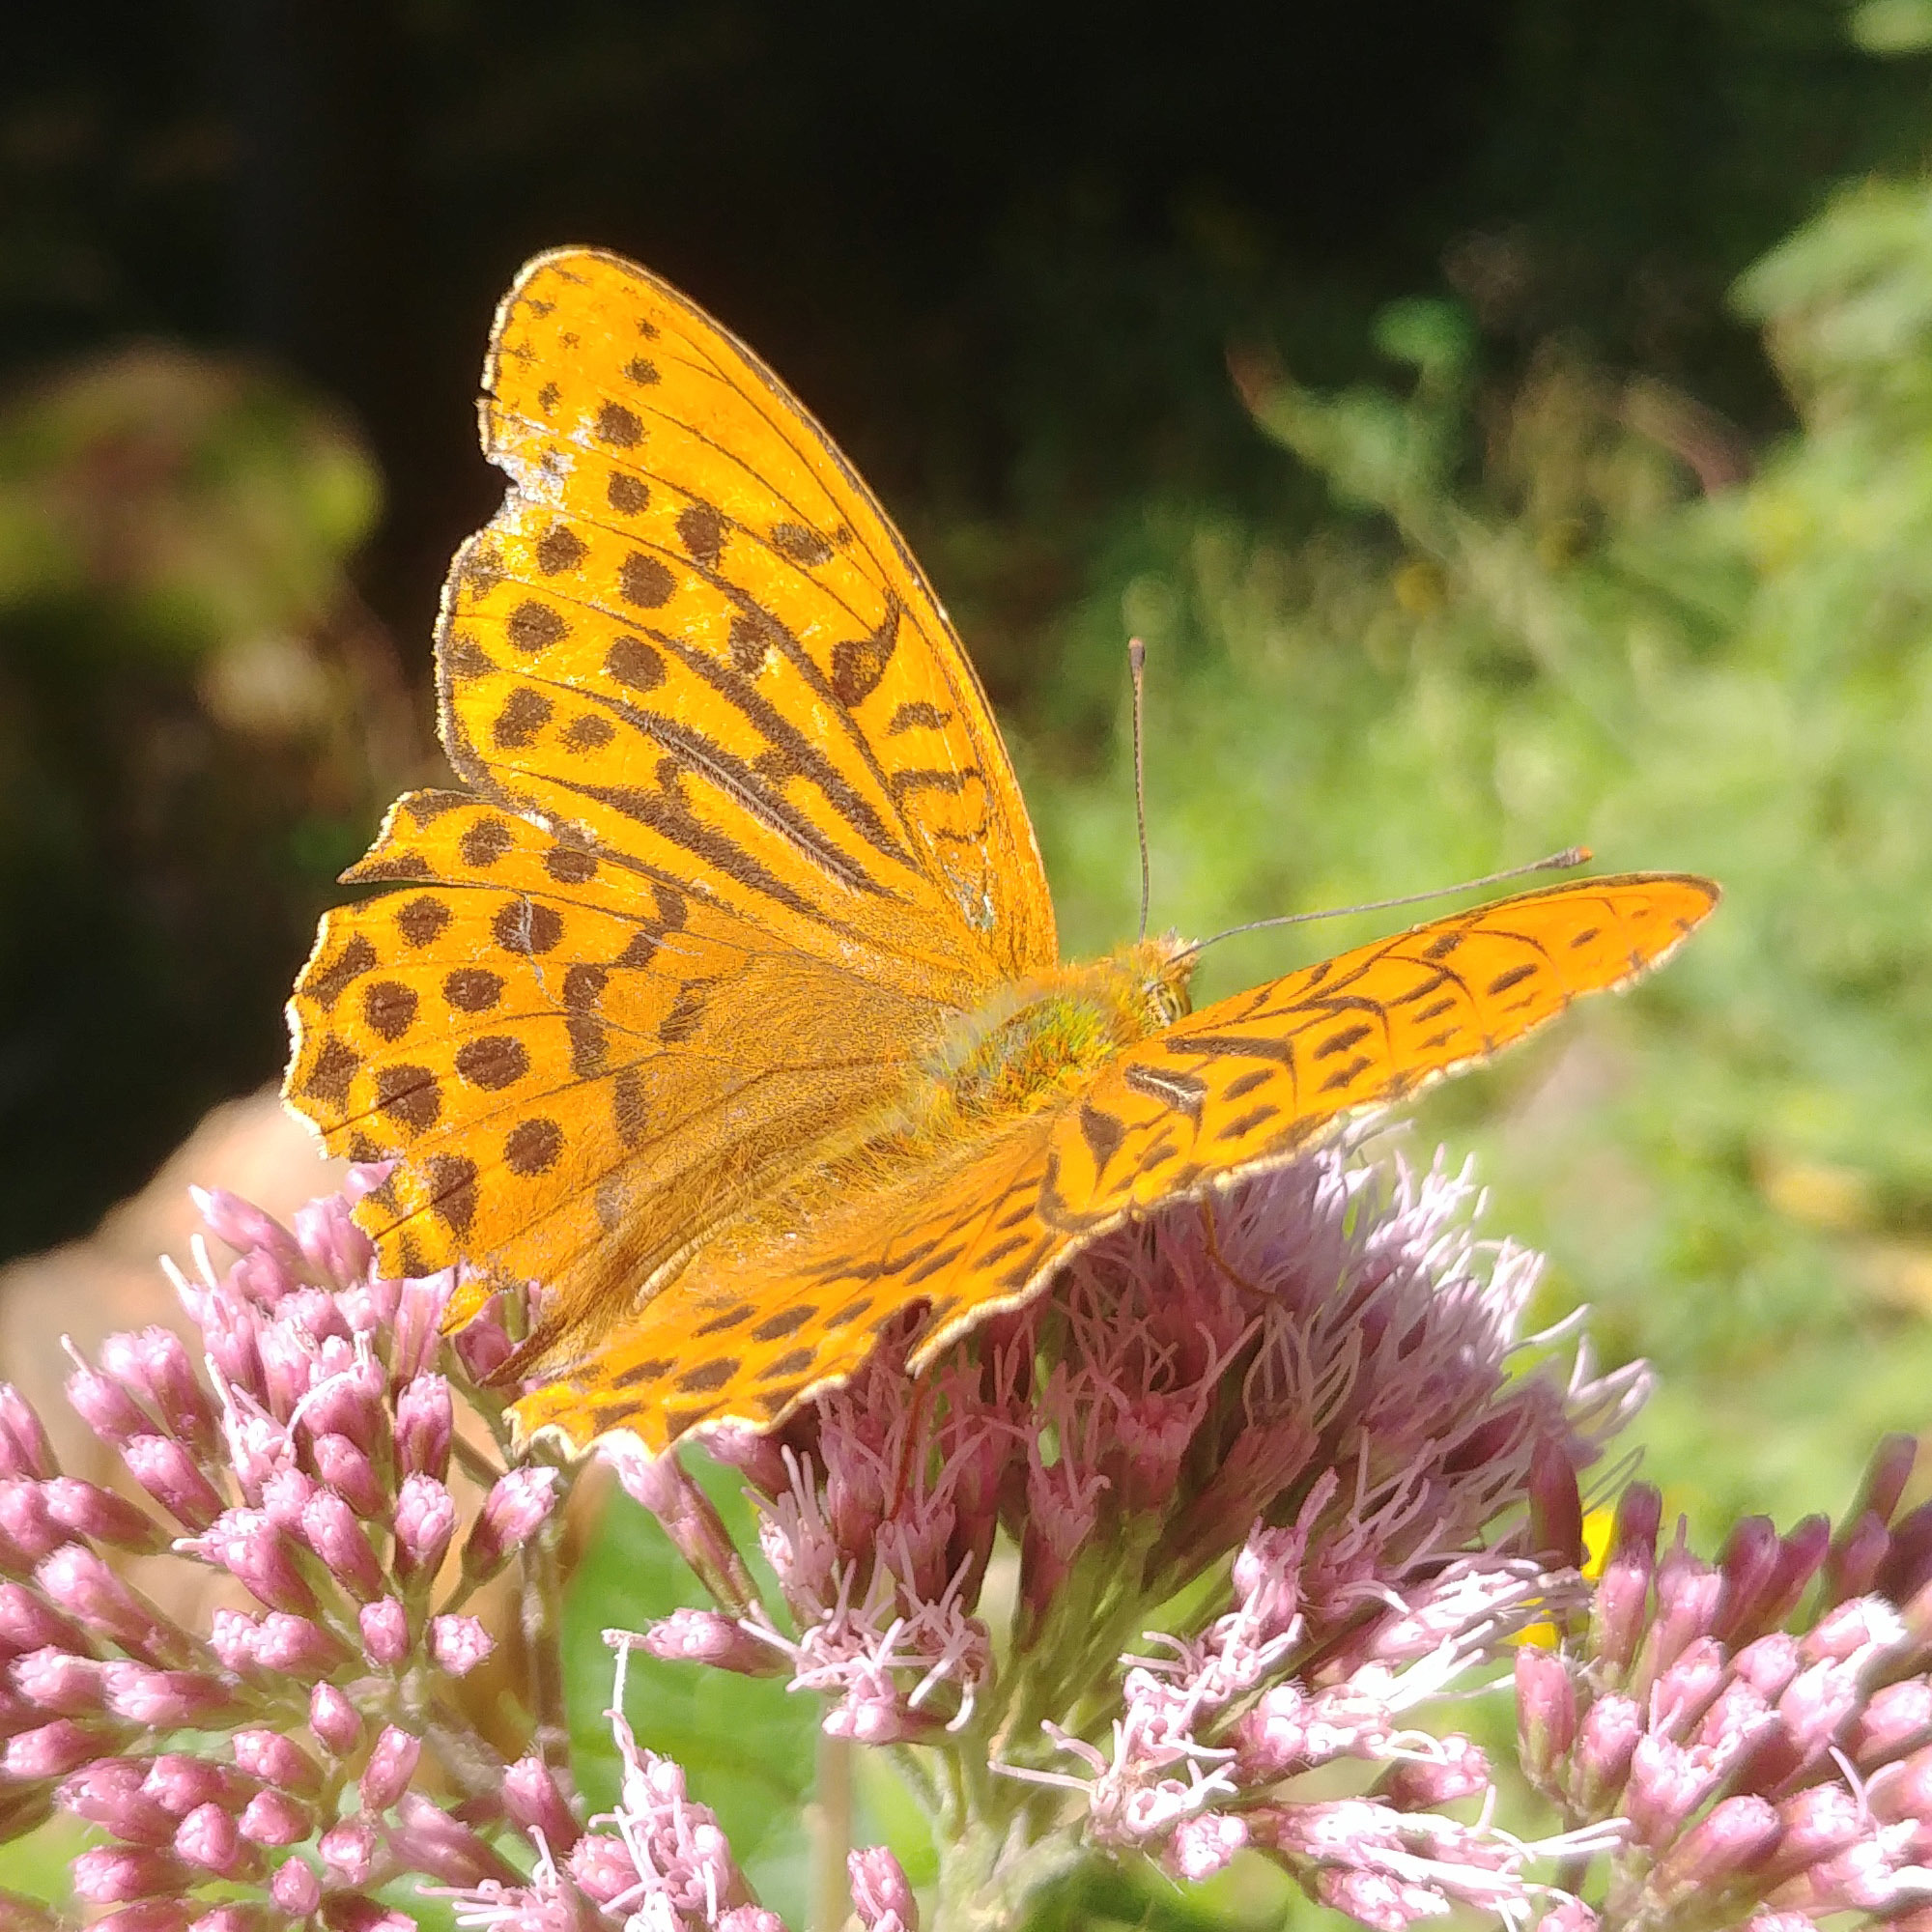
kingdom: Animalia
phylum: Arthropoda
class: Insecta
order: Lepidoptera
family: Nymphalidae
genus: Argynnis
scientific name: Argynnis paphia
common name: Silver-washed fritillary
